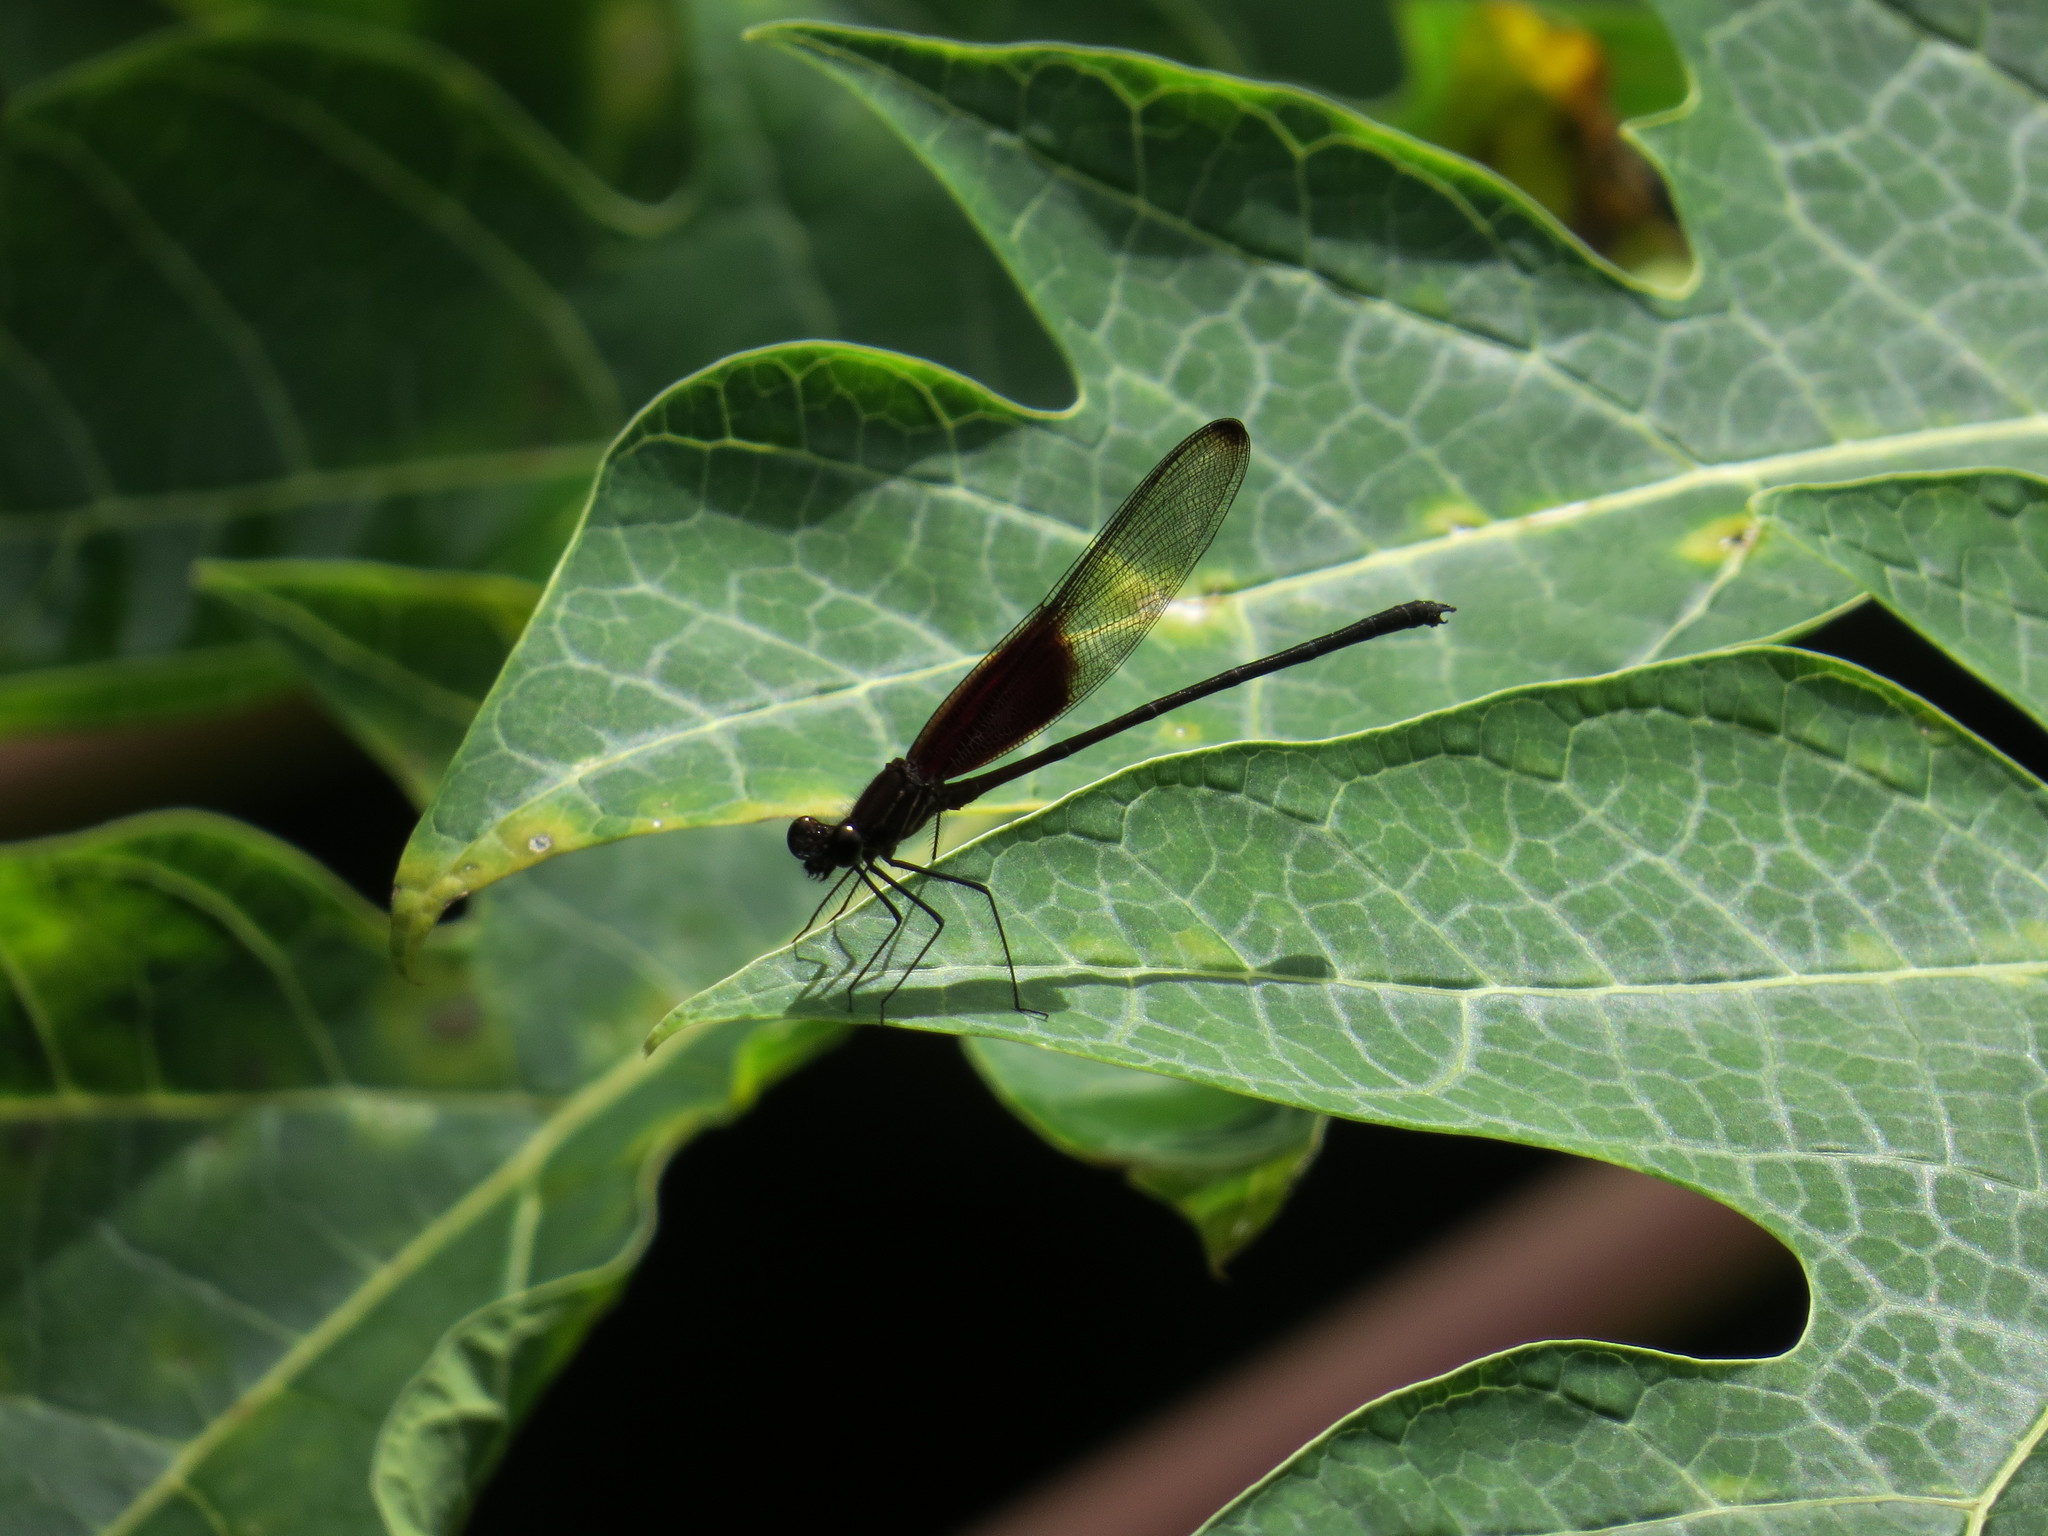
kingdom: Animalia
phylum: Arthropoda
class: Insecta
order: Odonata
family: Calopterygidae
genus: Hetaerina
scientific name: Hetaerina titia
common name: Smoky rubyspot
